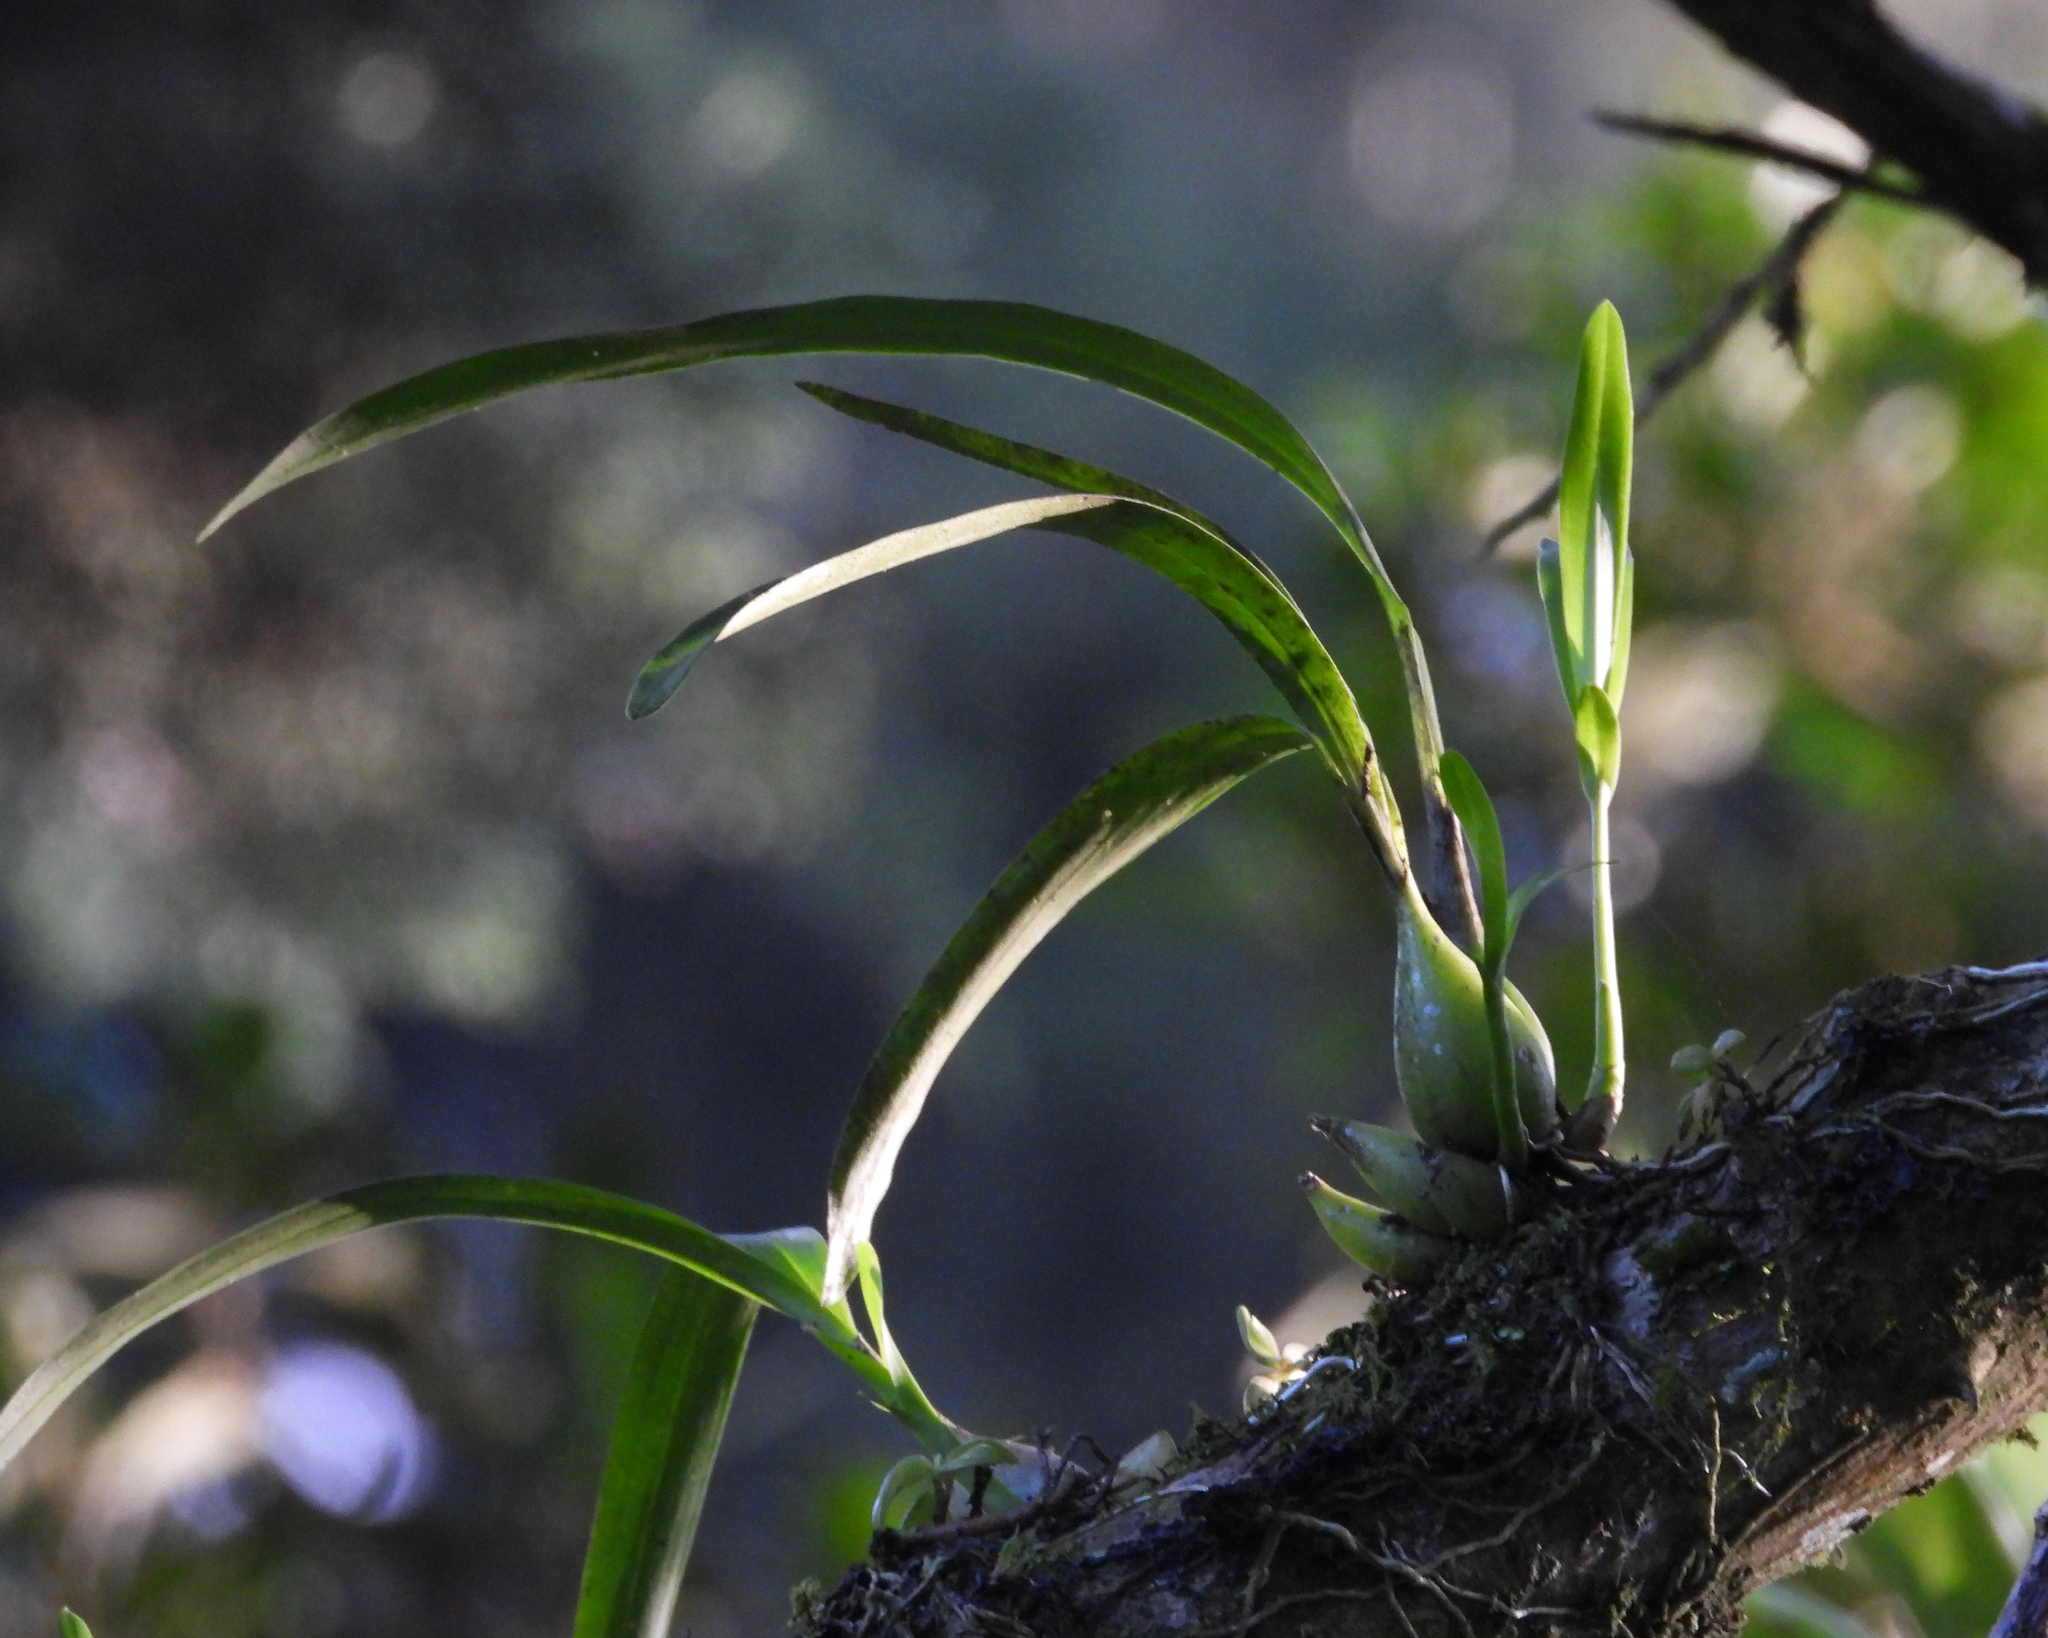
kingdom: Plantae
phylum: Tracheophyta
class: Liliopsida
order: Asparagales
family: Orchidaceae
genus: Prosthechea
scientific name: Prosthechea ochracea
